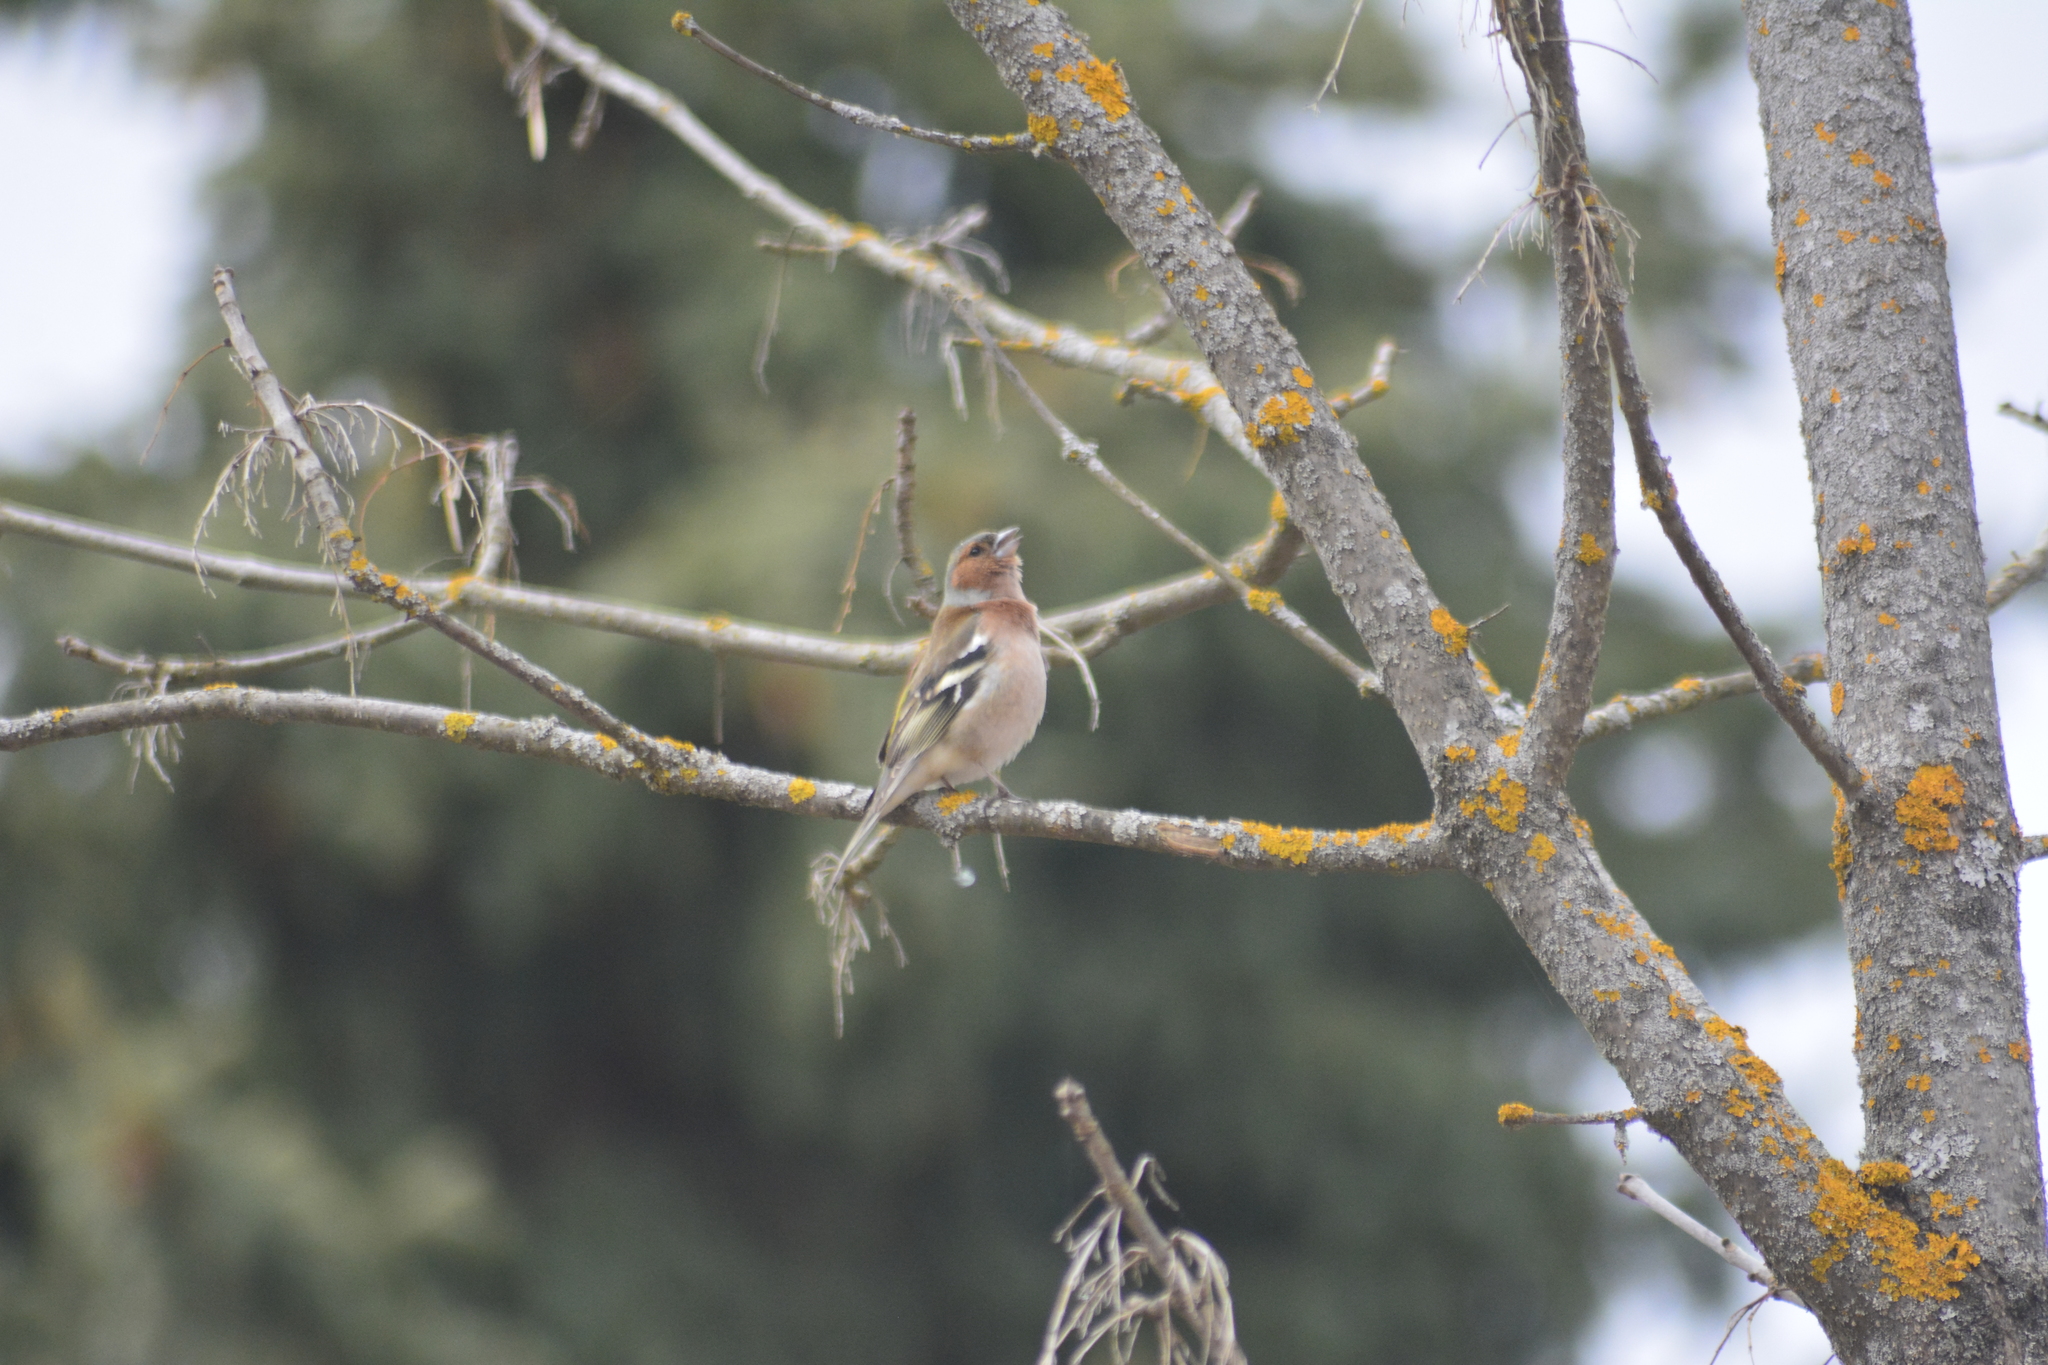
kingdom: Animalia
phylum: Chordata
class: Aves
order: Passeriformes
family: Fringillidae
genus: Fringilla
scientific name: Fringilla coelebs
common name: Common chaffinch
